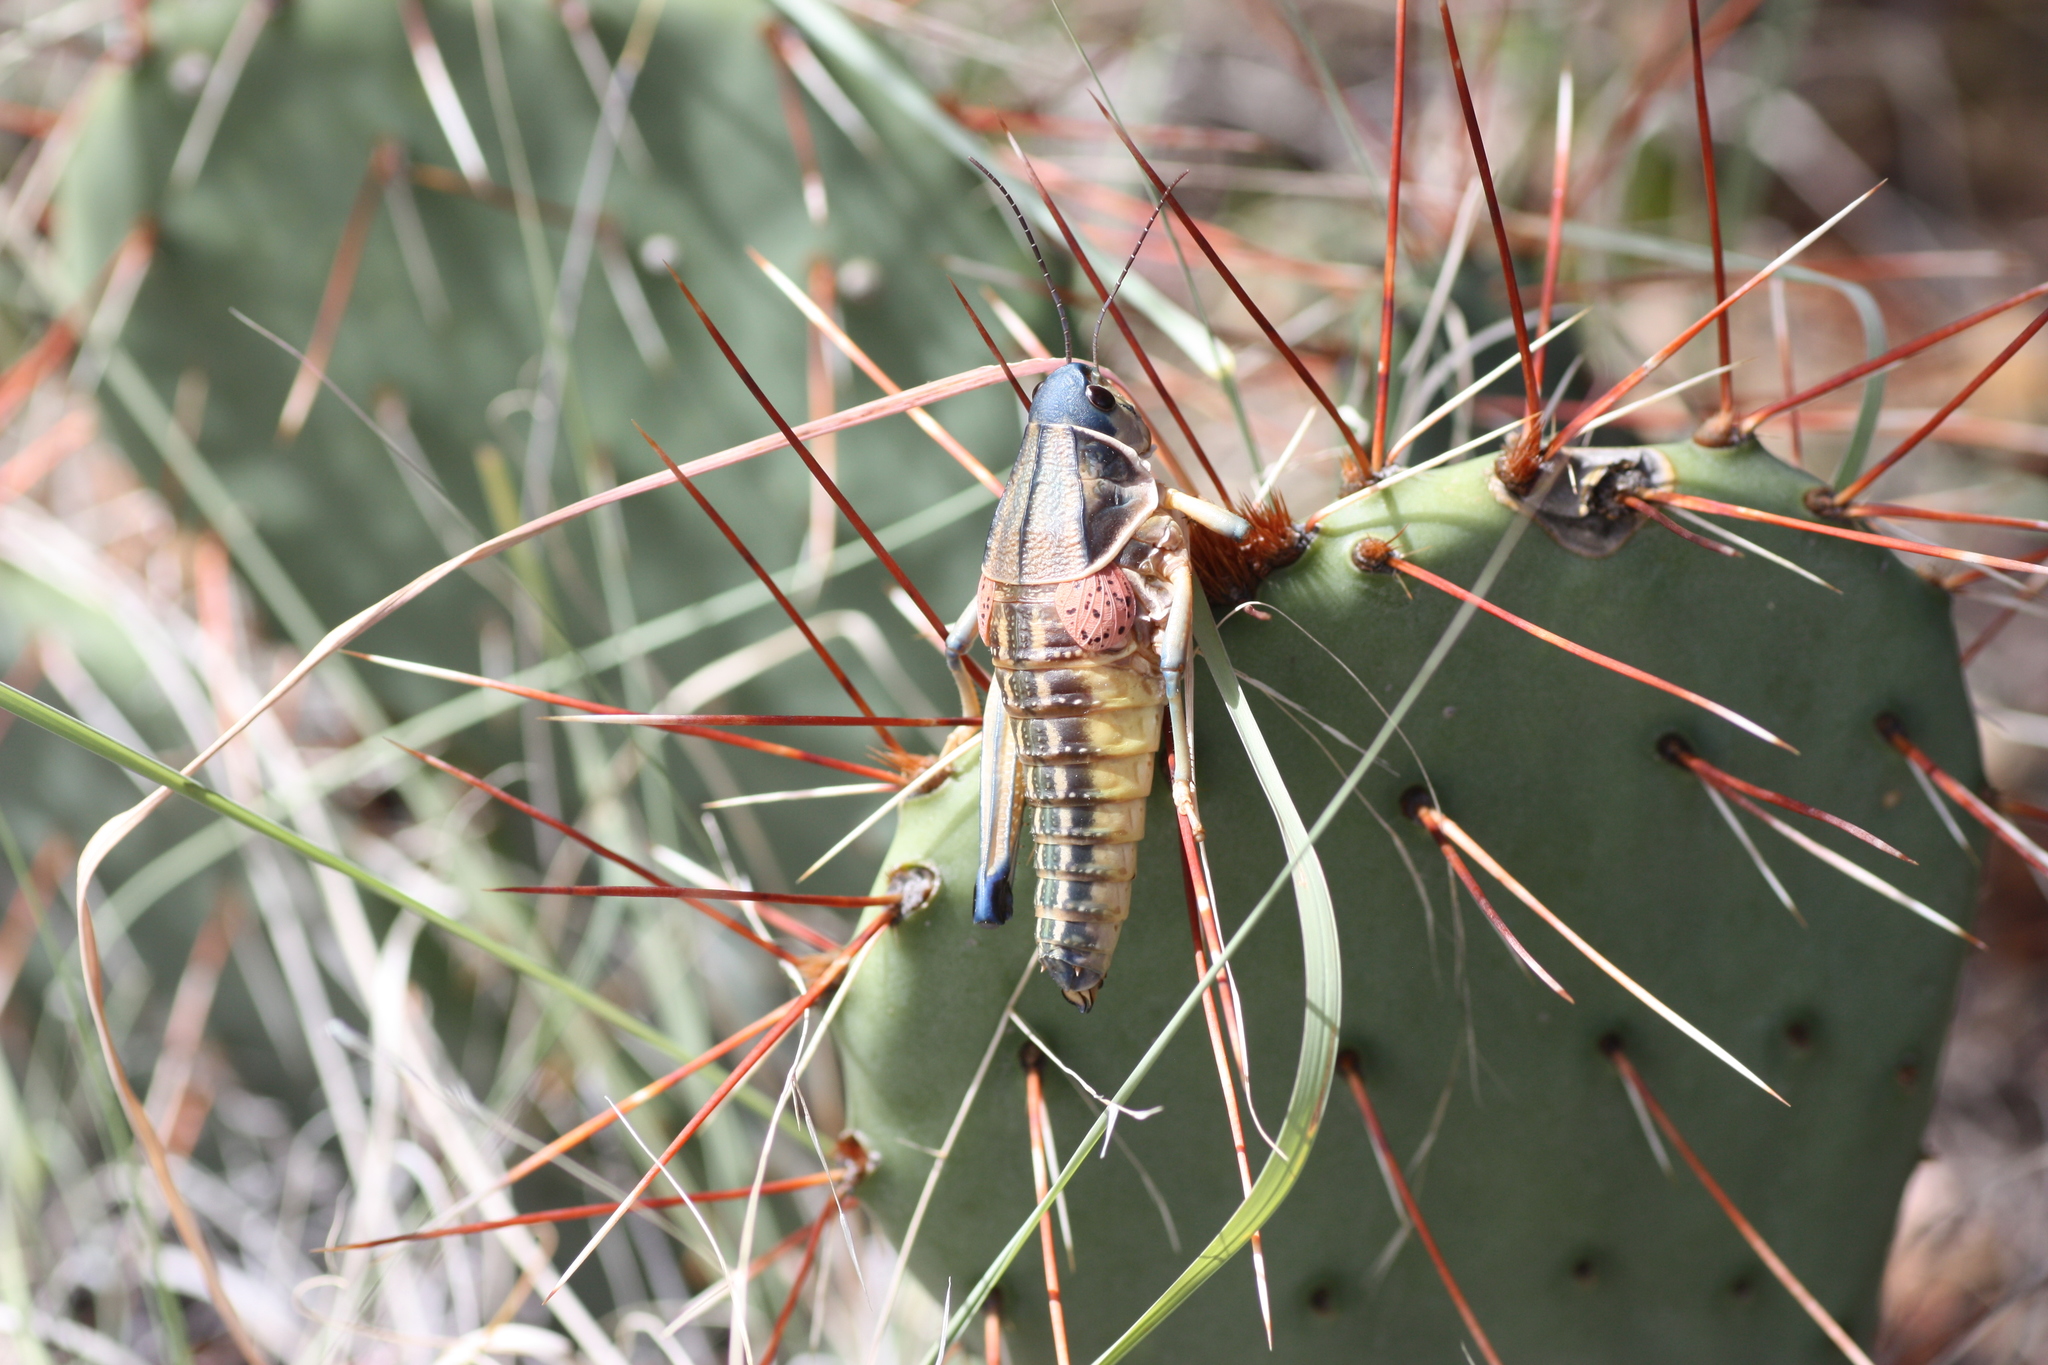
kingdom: Animalia
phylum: Arthropoda
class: Insecta
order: Orthoptera
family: Romaleidae
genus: Brachystola
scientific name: Brachystola magna
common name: Plains lubber grasshopper
